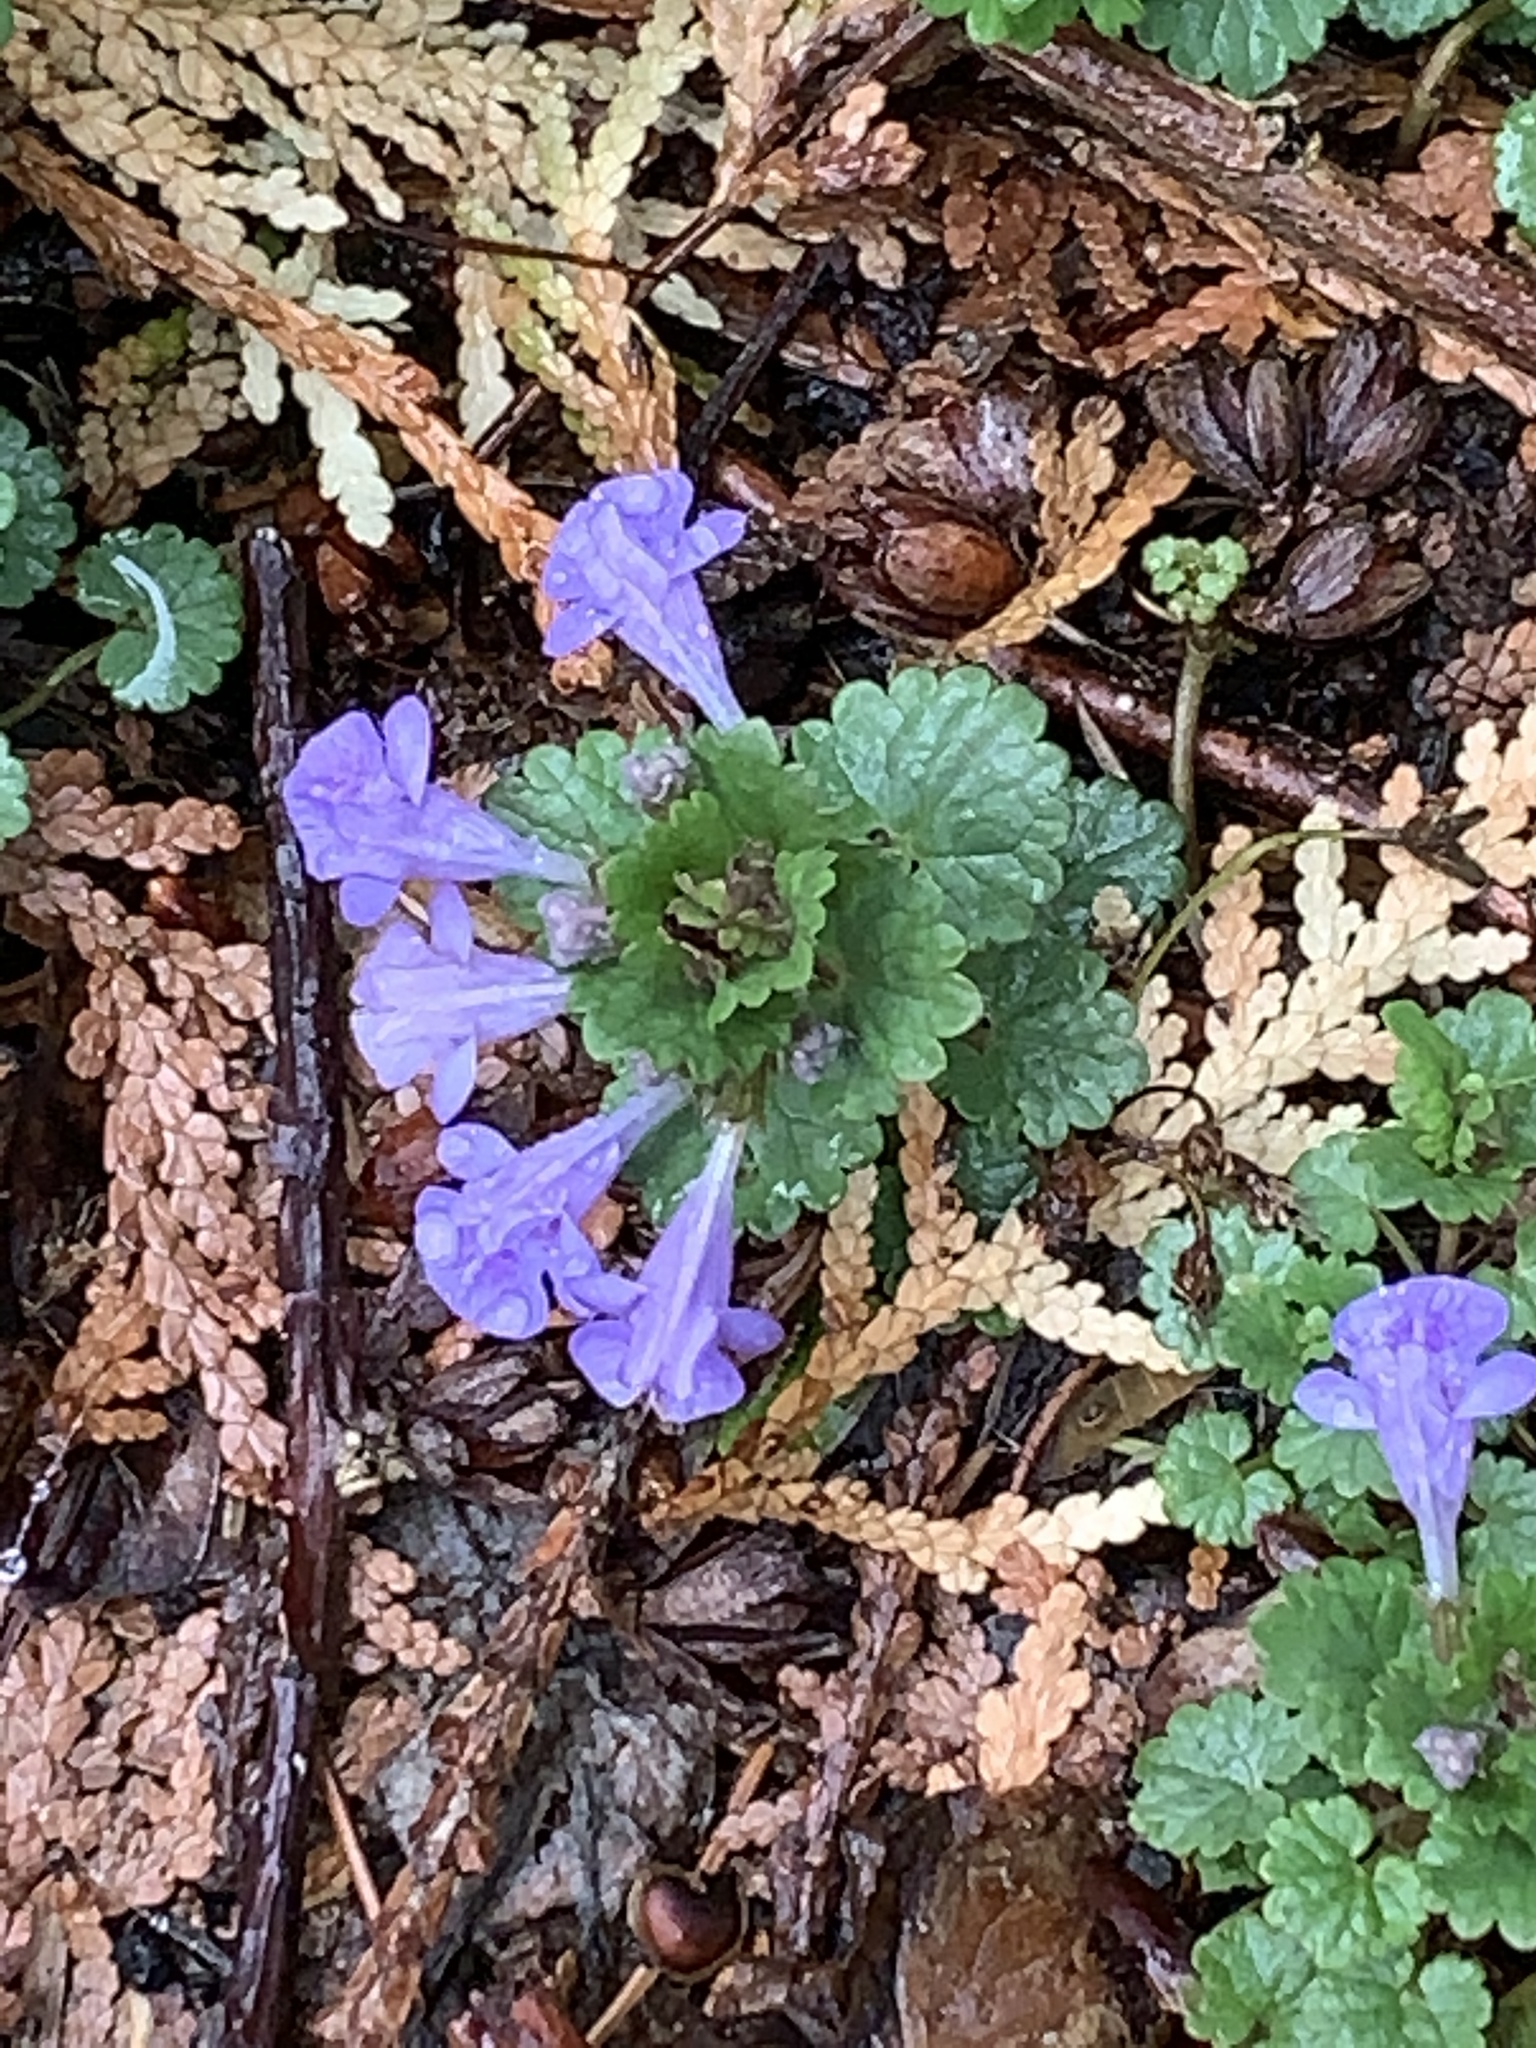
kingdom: Plantae
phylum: Tracheophyta
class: Magnoliopsida
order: Lamiales
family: Lamiaceae
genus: Glechoma
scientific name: Glechoma hederacea
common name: Ground ivy
